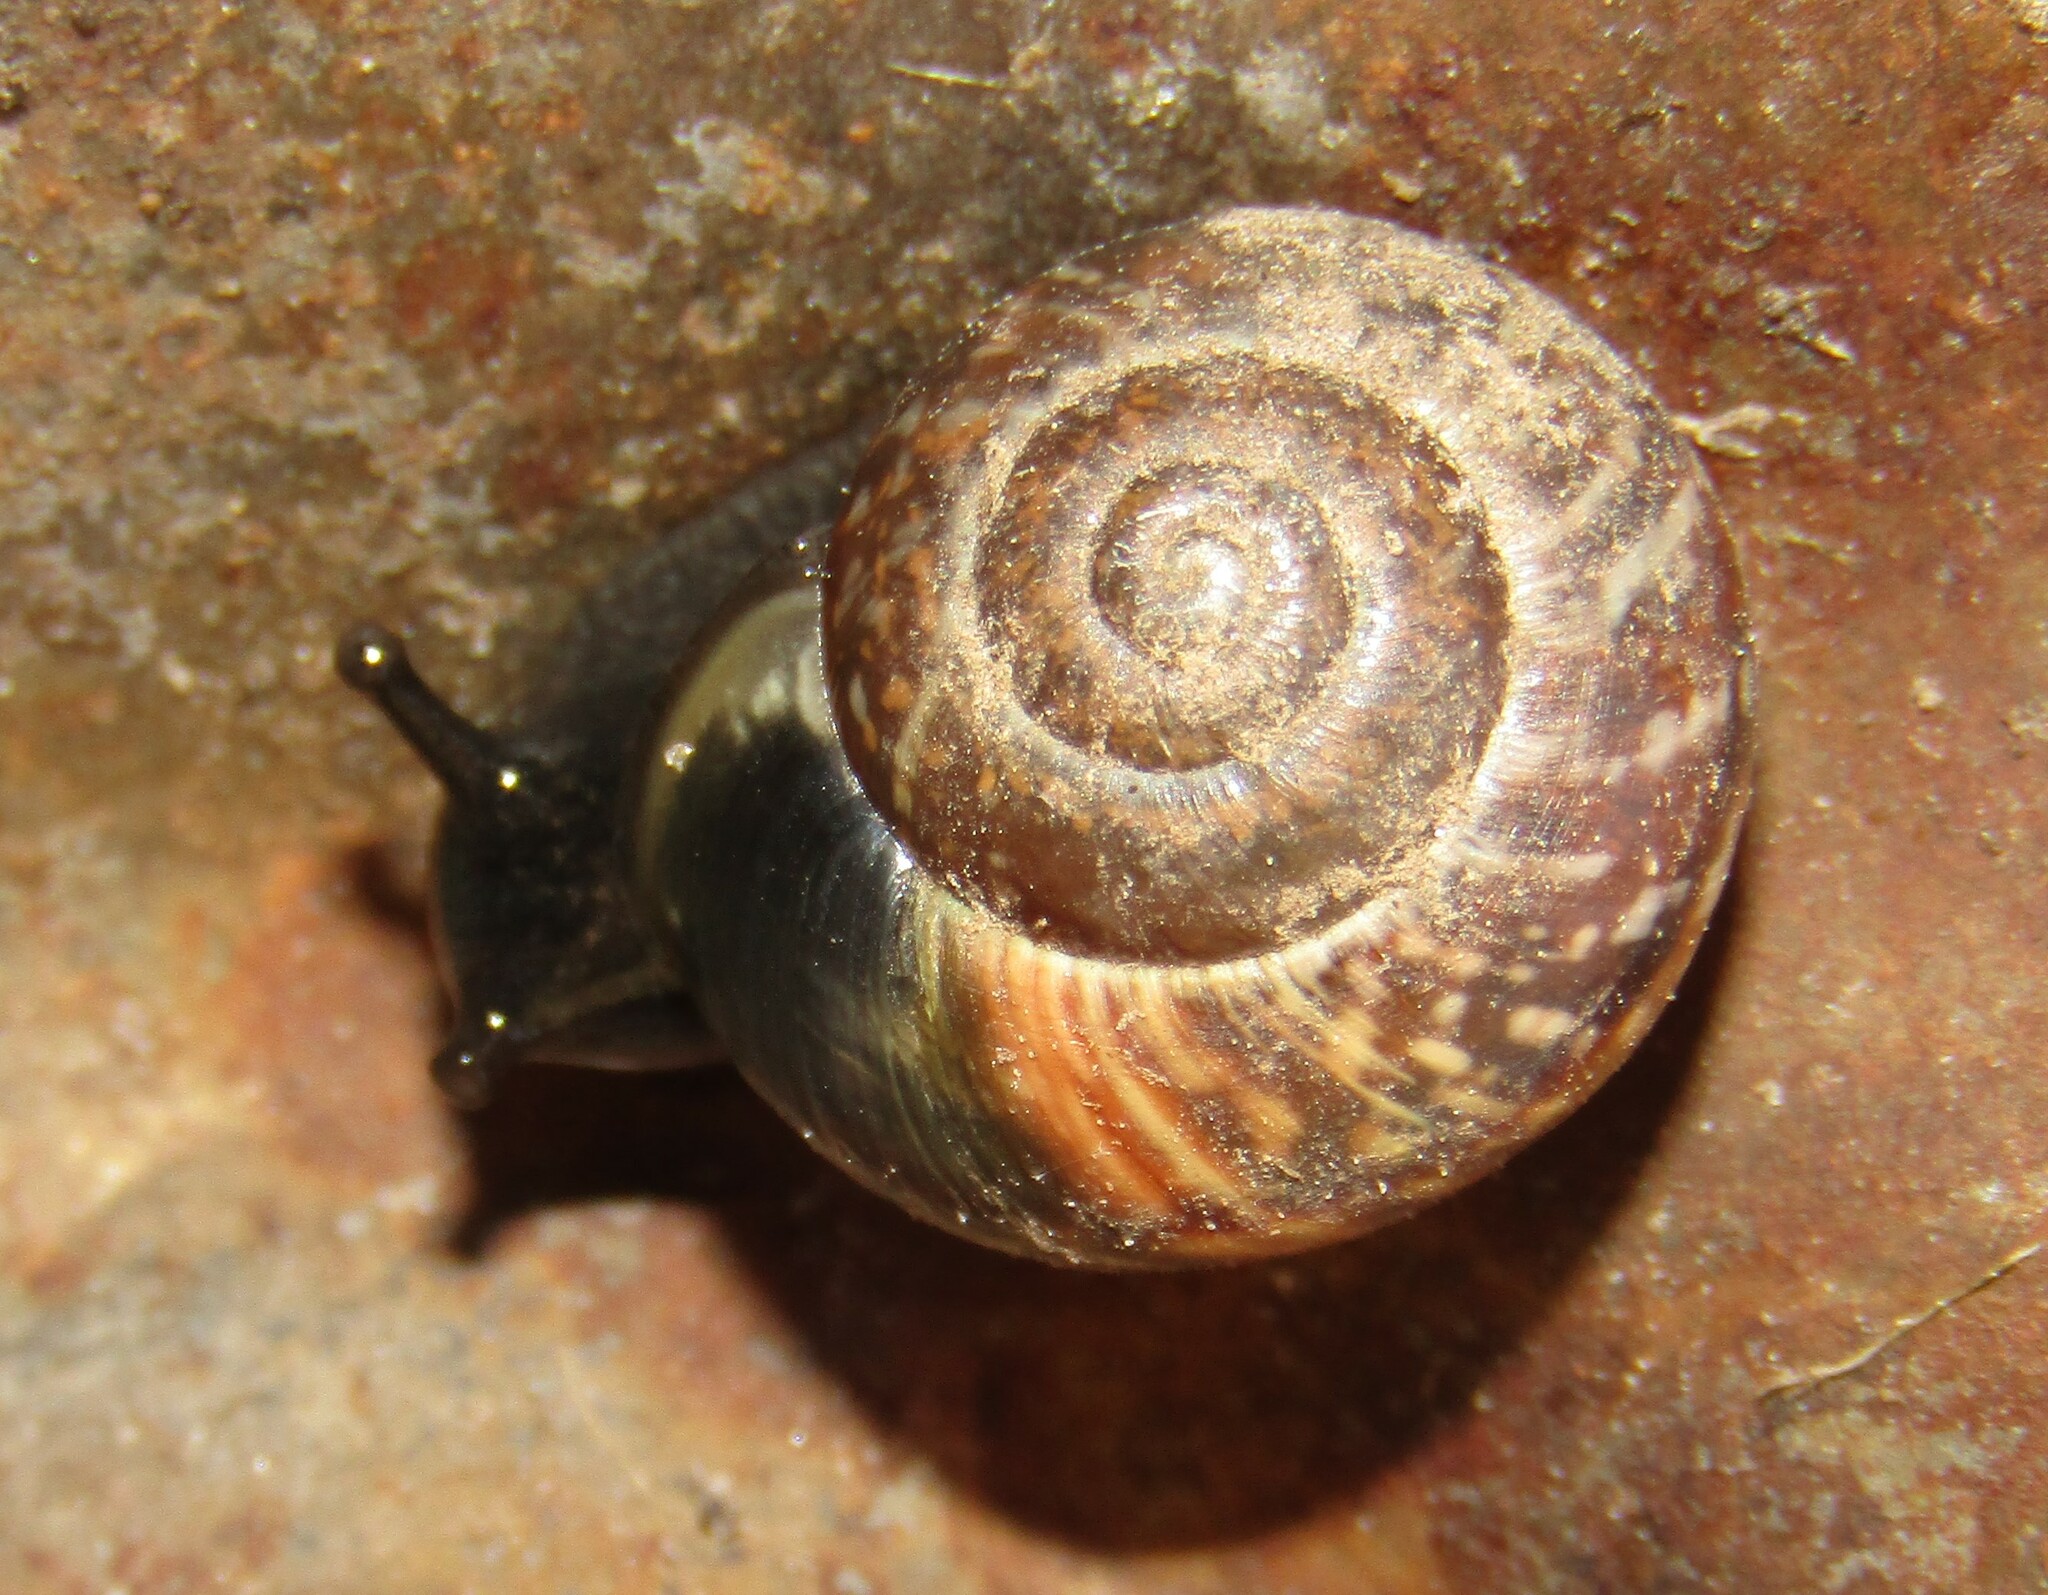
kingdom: Animalia
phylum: Mollusca
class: Gastropoda
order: Stylommatophora
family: Helicidae
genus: Arianta
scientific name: Arianta arbustorum
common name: Copse snail
